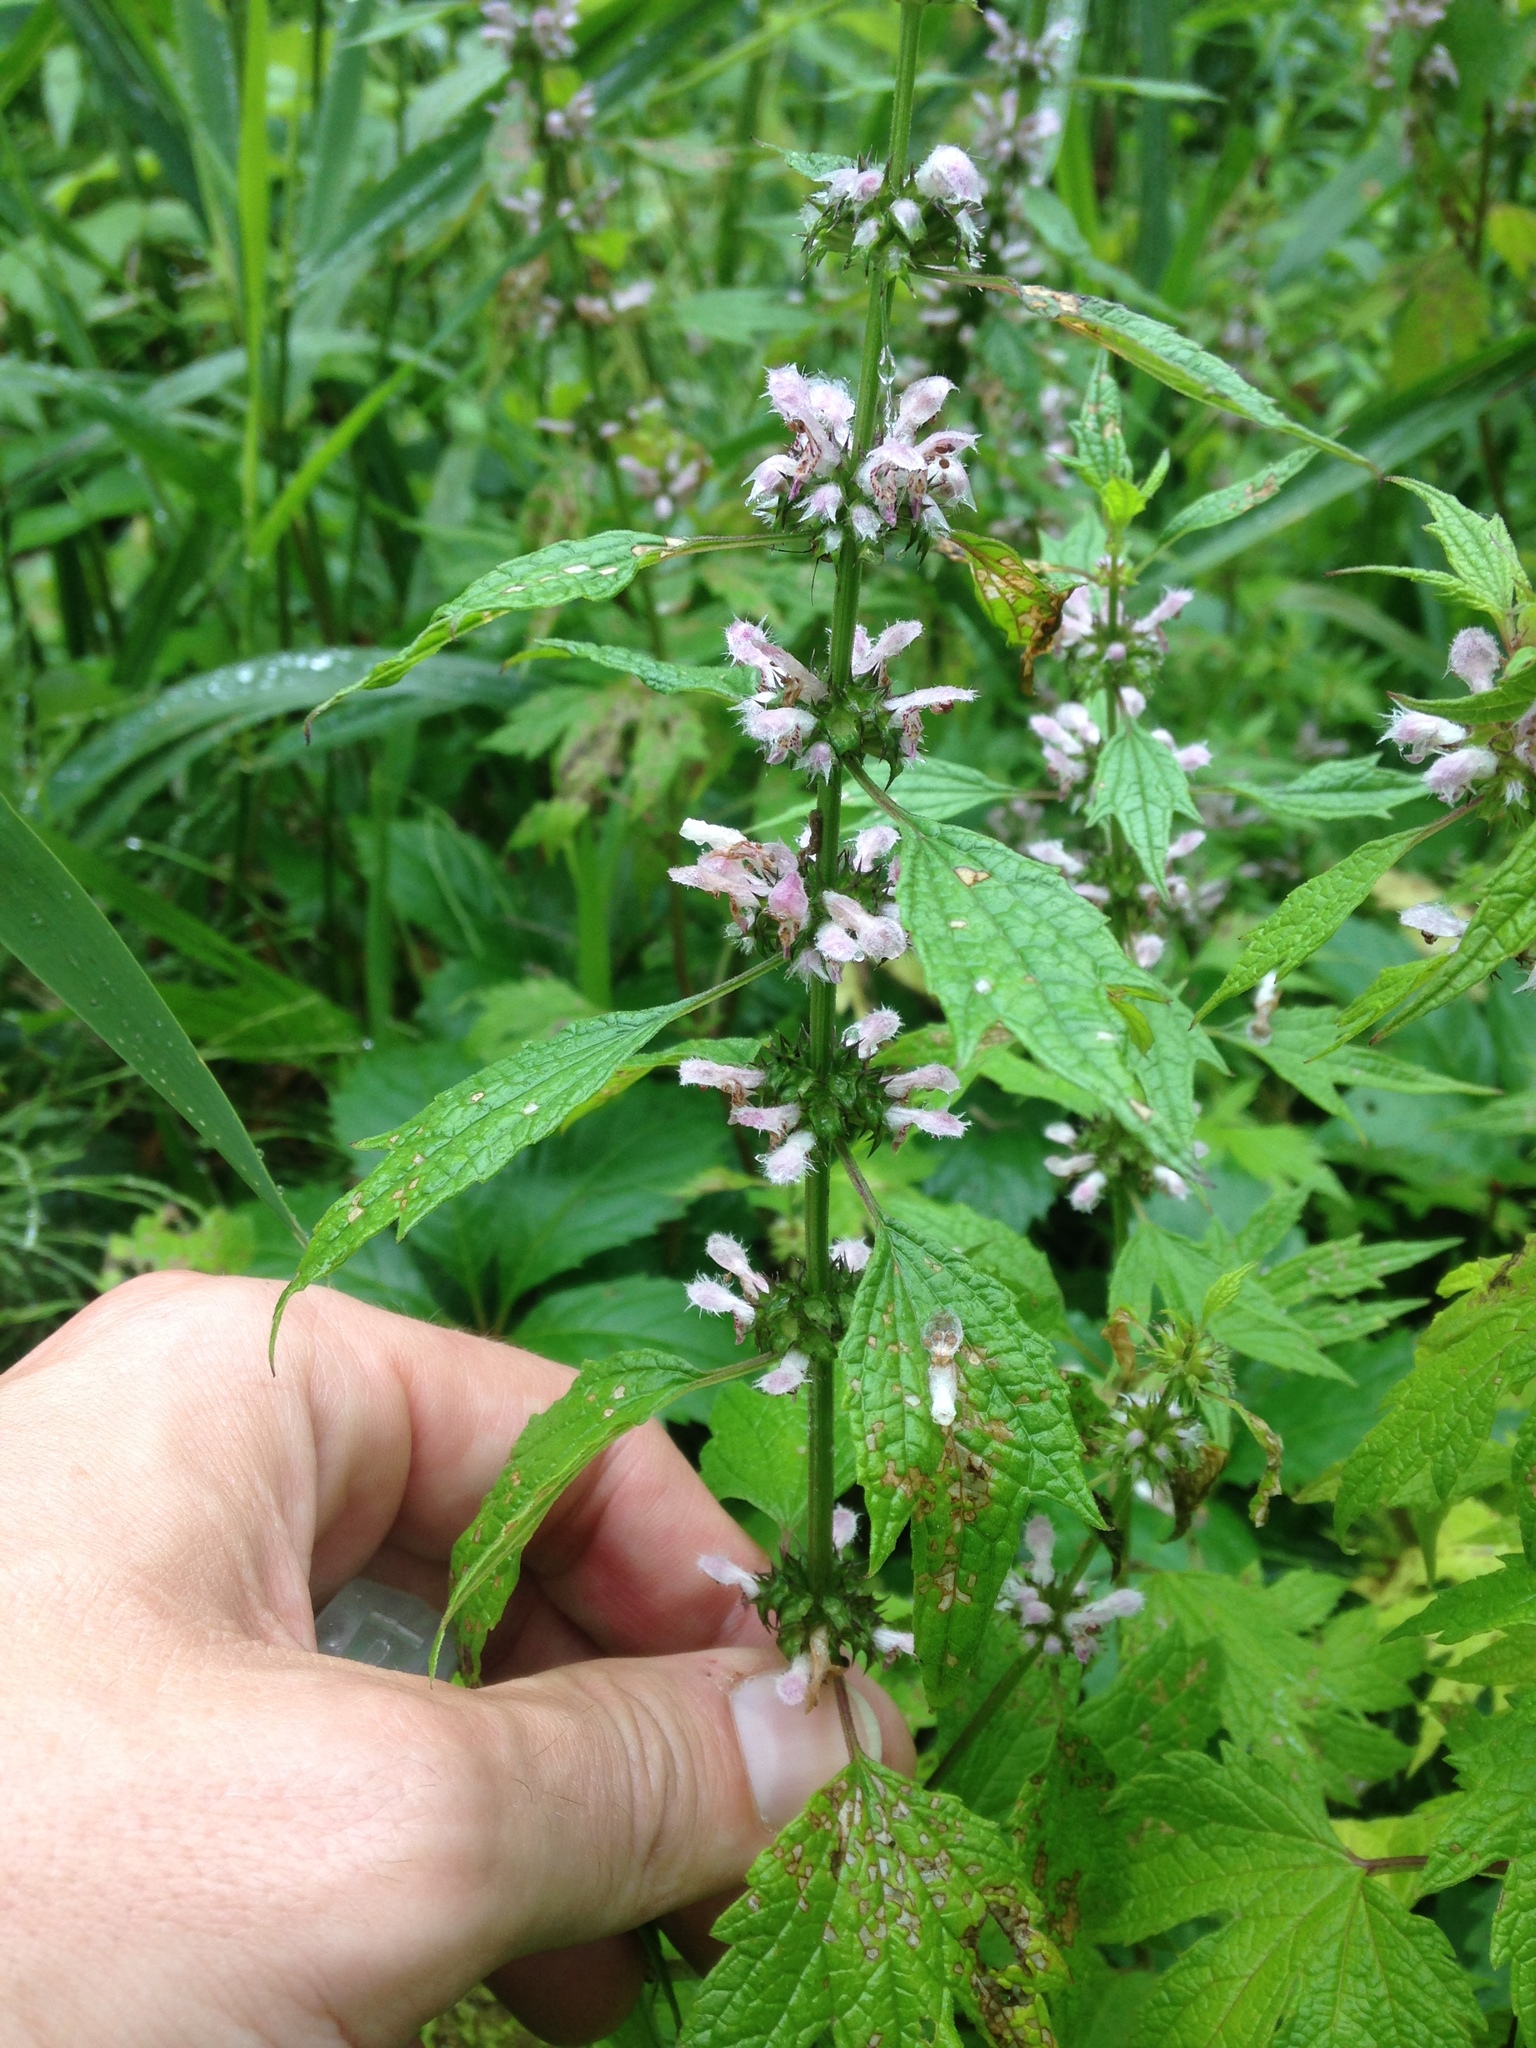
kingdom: Plantae
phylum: Tracheophyta
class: Magnoliopsida
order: Lamiales
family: Lamiaceae
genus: Leonurus
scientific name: Leonurus cardiaca
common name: Motherwort
